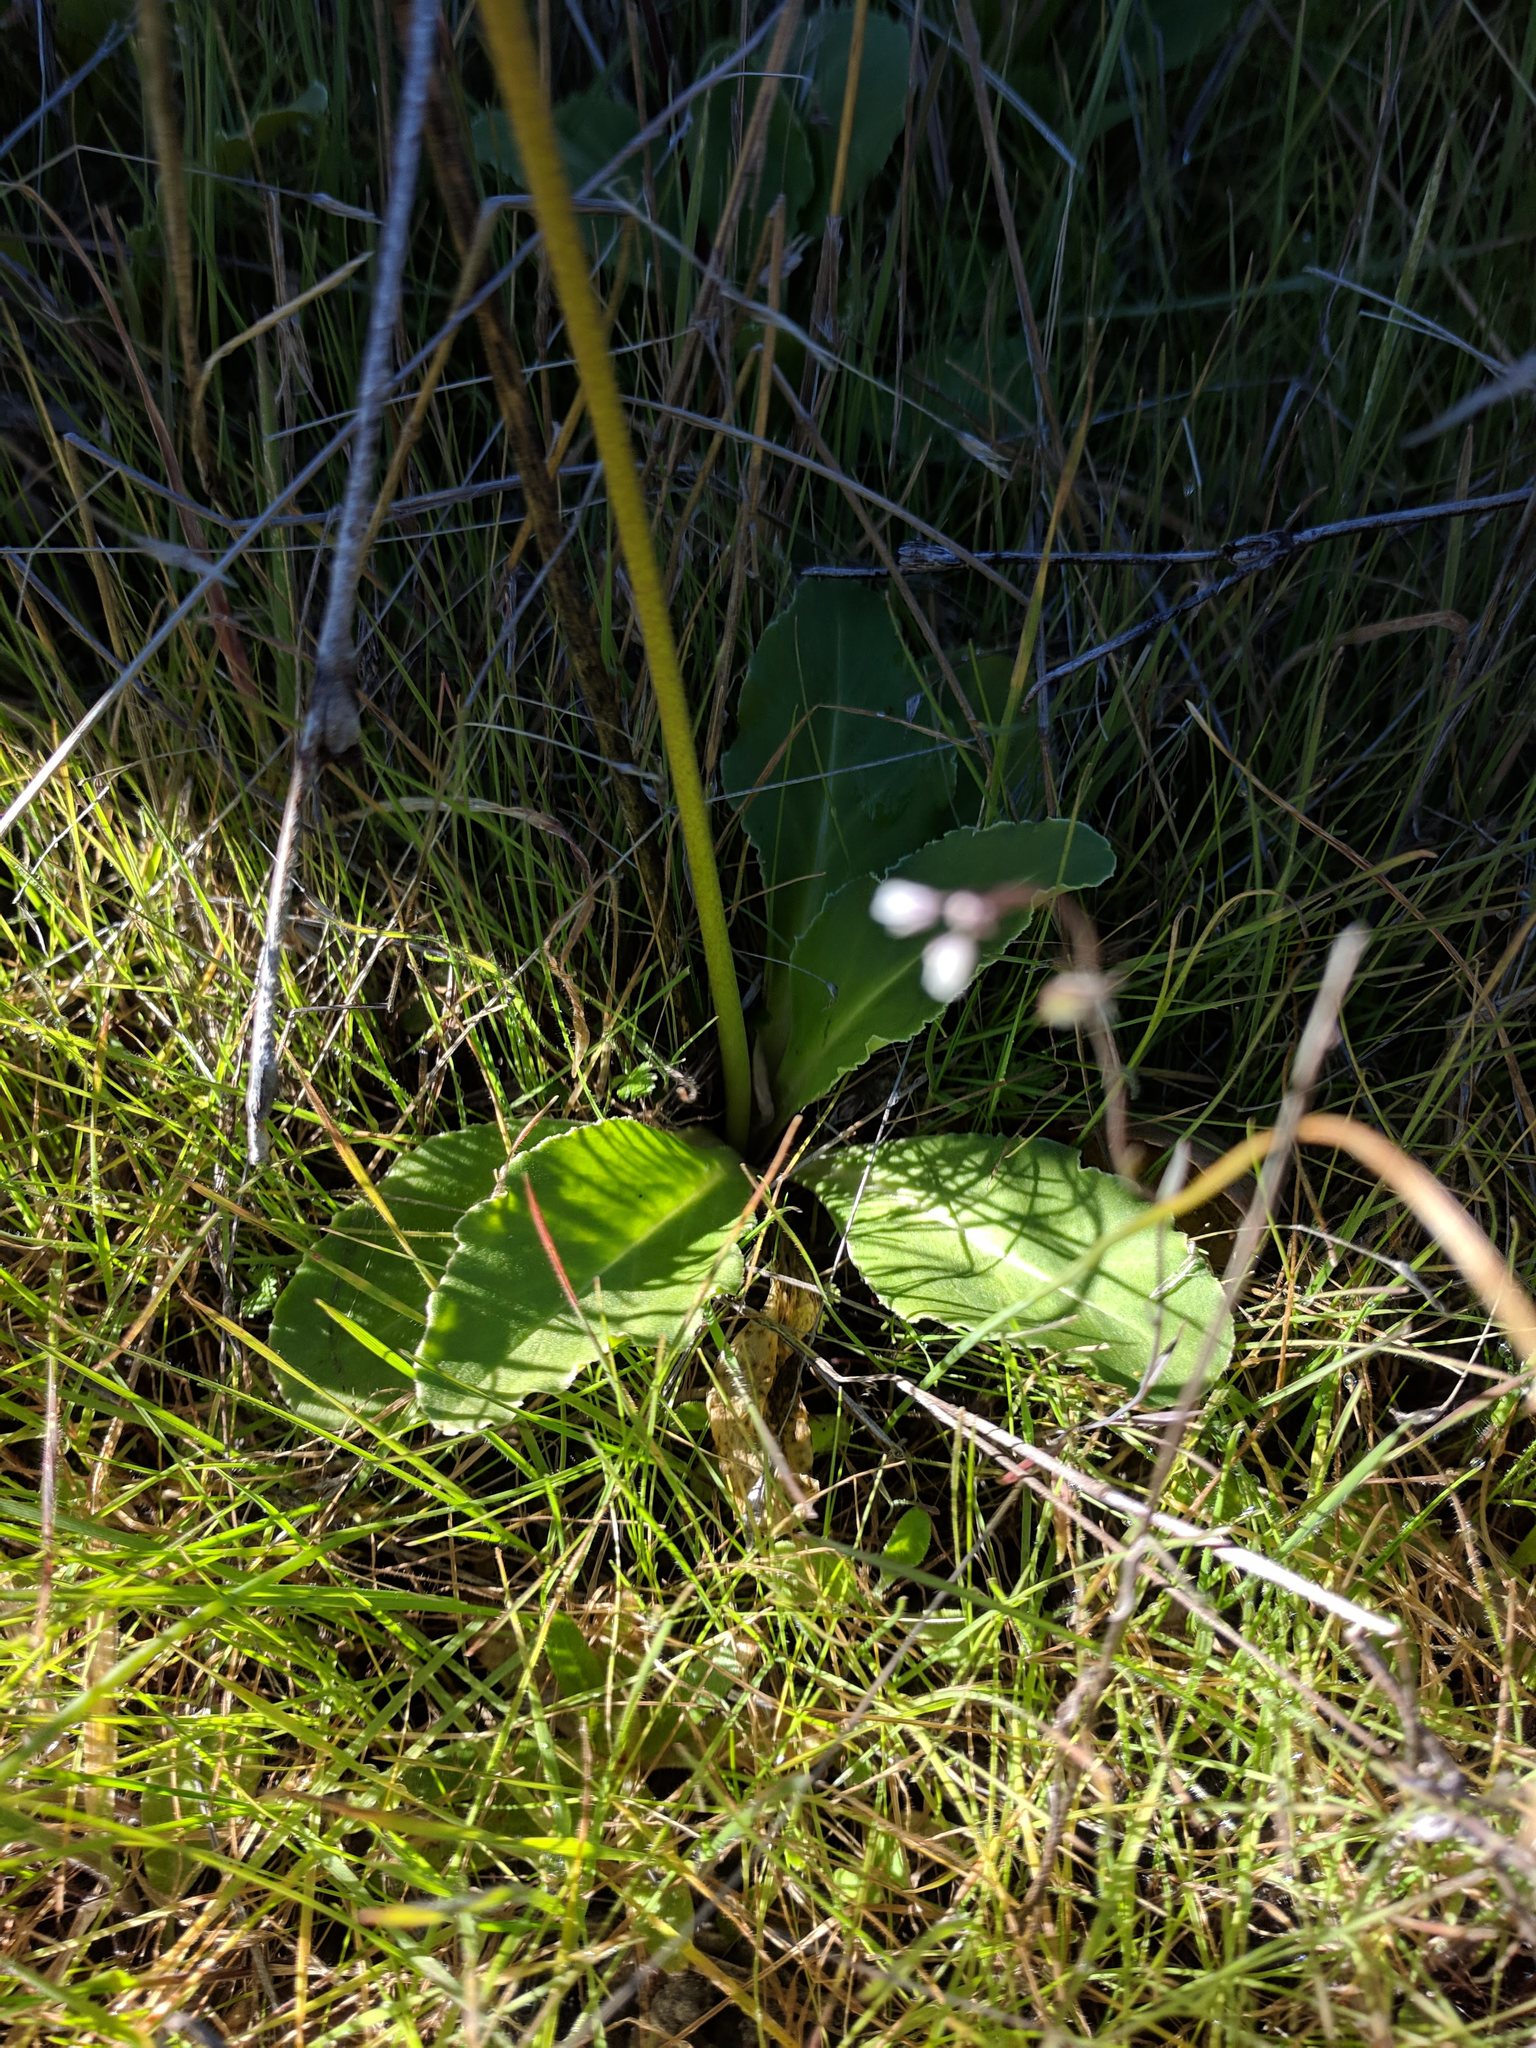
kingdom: Plantae
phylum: Tracheophyta
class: Magnoliopsida
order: Ericales
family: Primulaceae
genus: Dodecatheon
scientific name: Dodecatheon clevelandii
